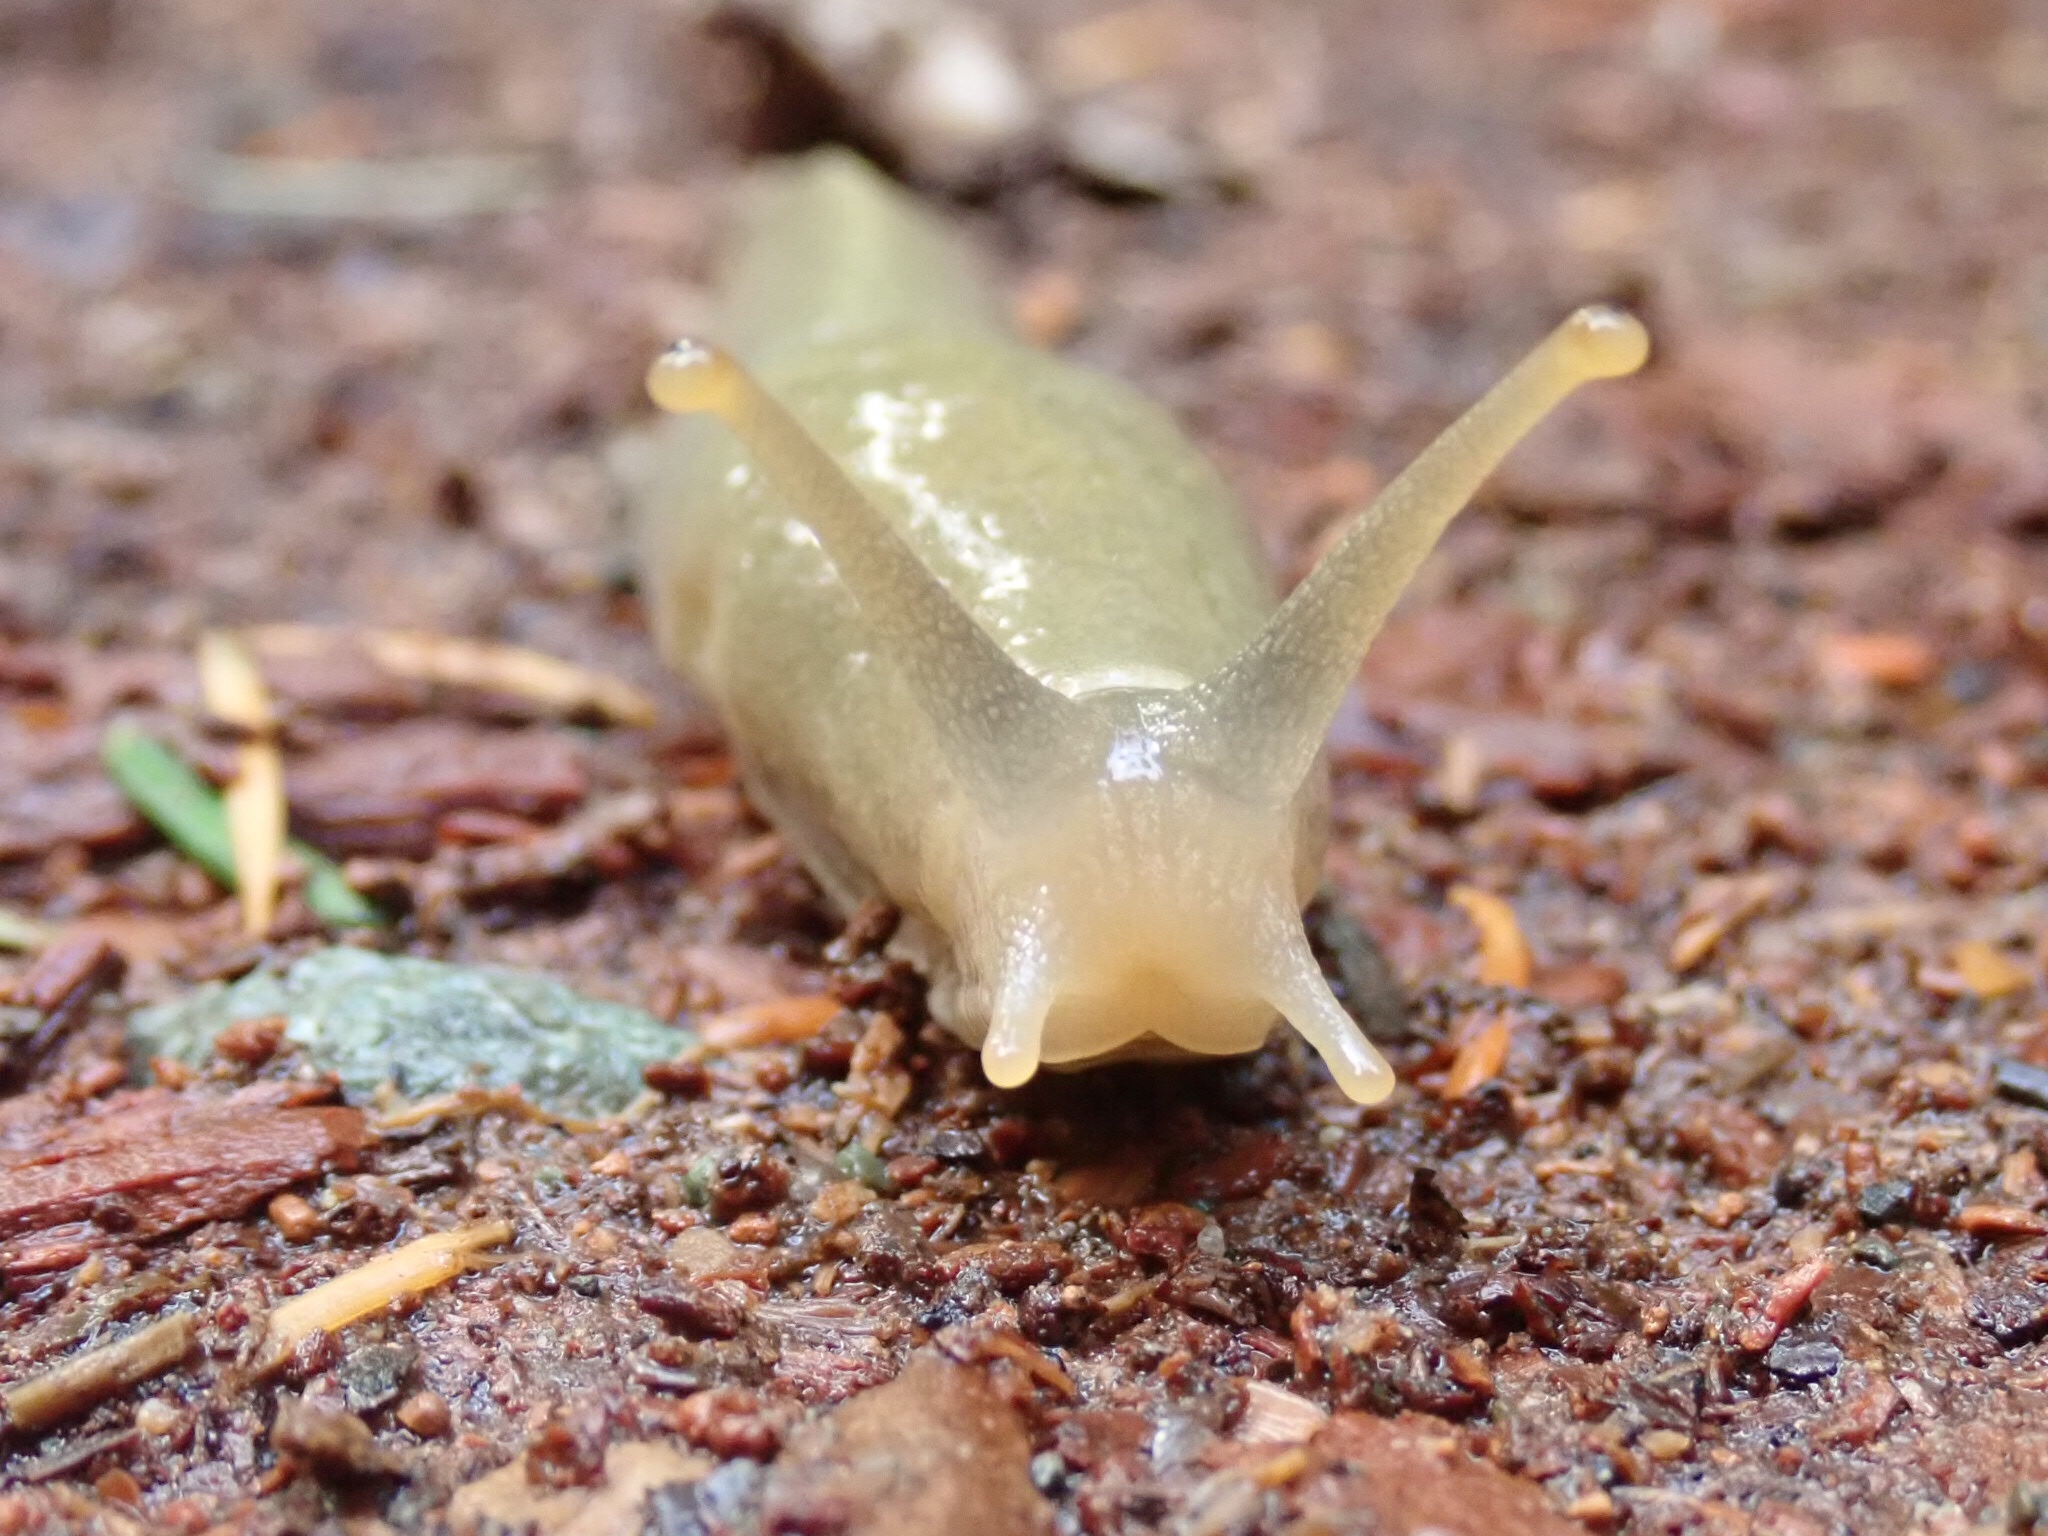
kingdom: Animalia
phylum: Mollusca
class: Gastropoda
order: Stylommatophora
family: Ariolimacidae
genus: Ariolimax
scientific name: Ariolimax columbianus
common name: Pacific banana slug
